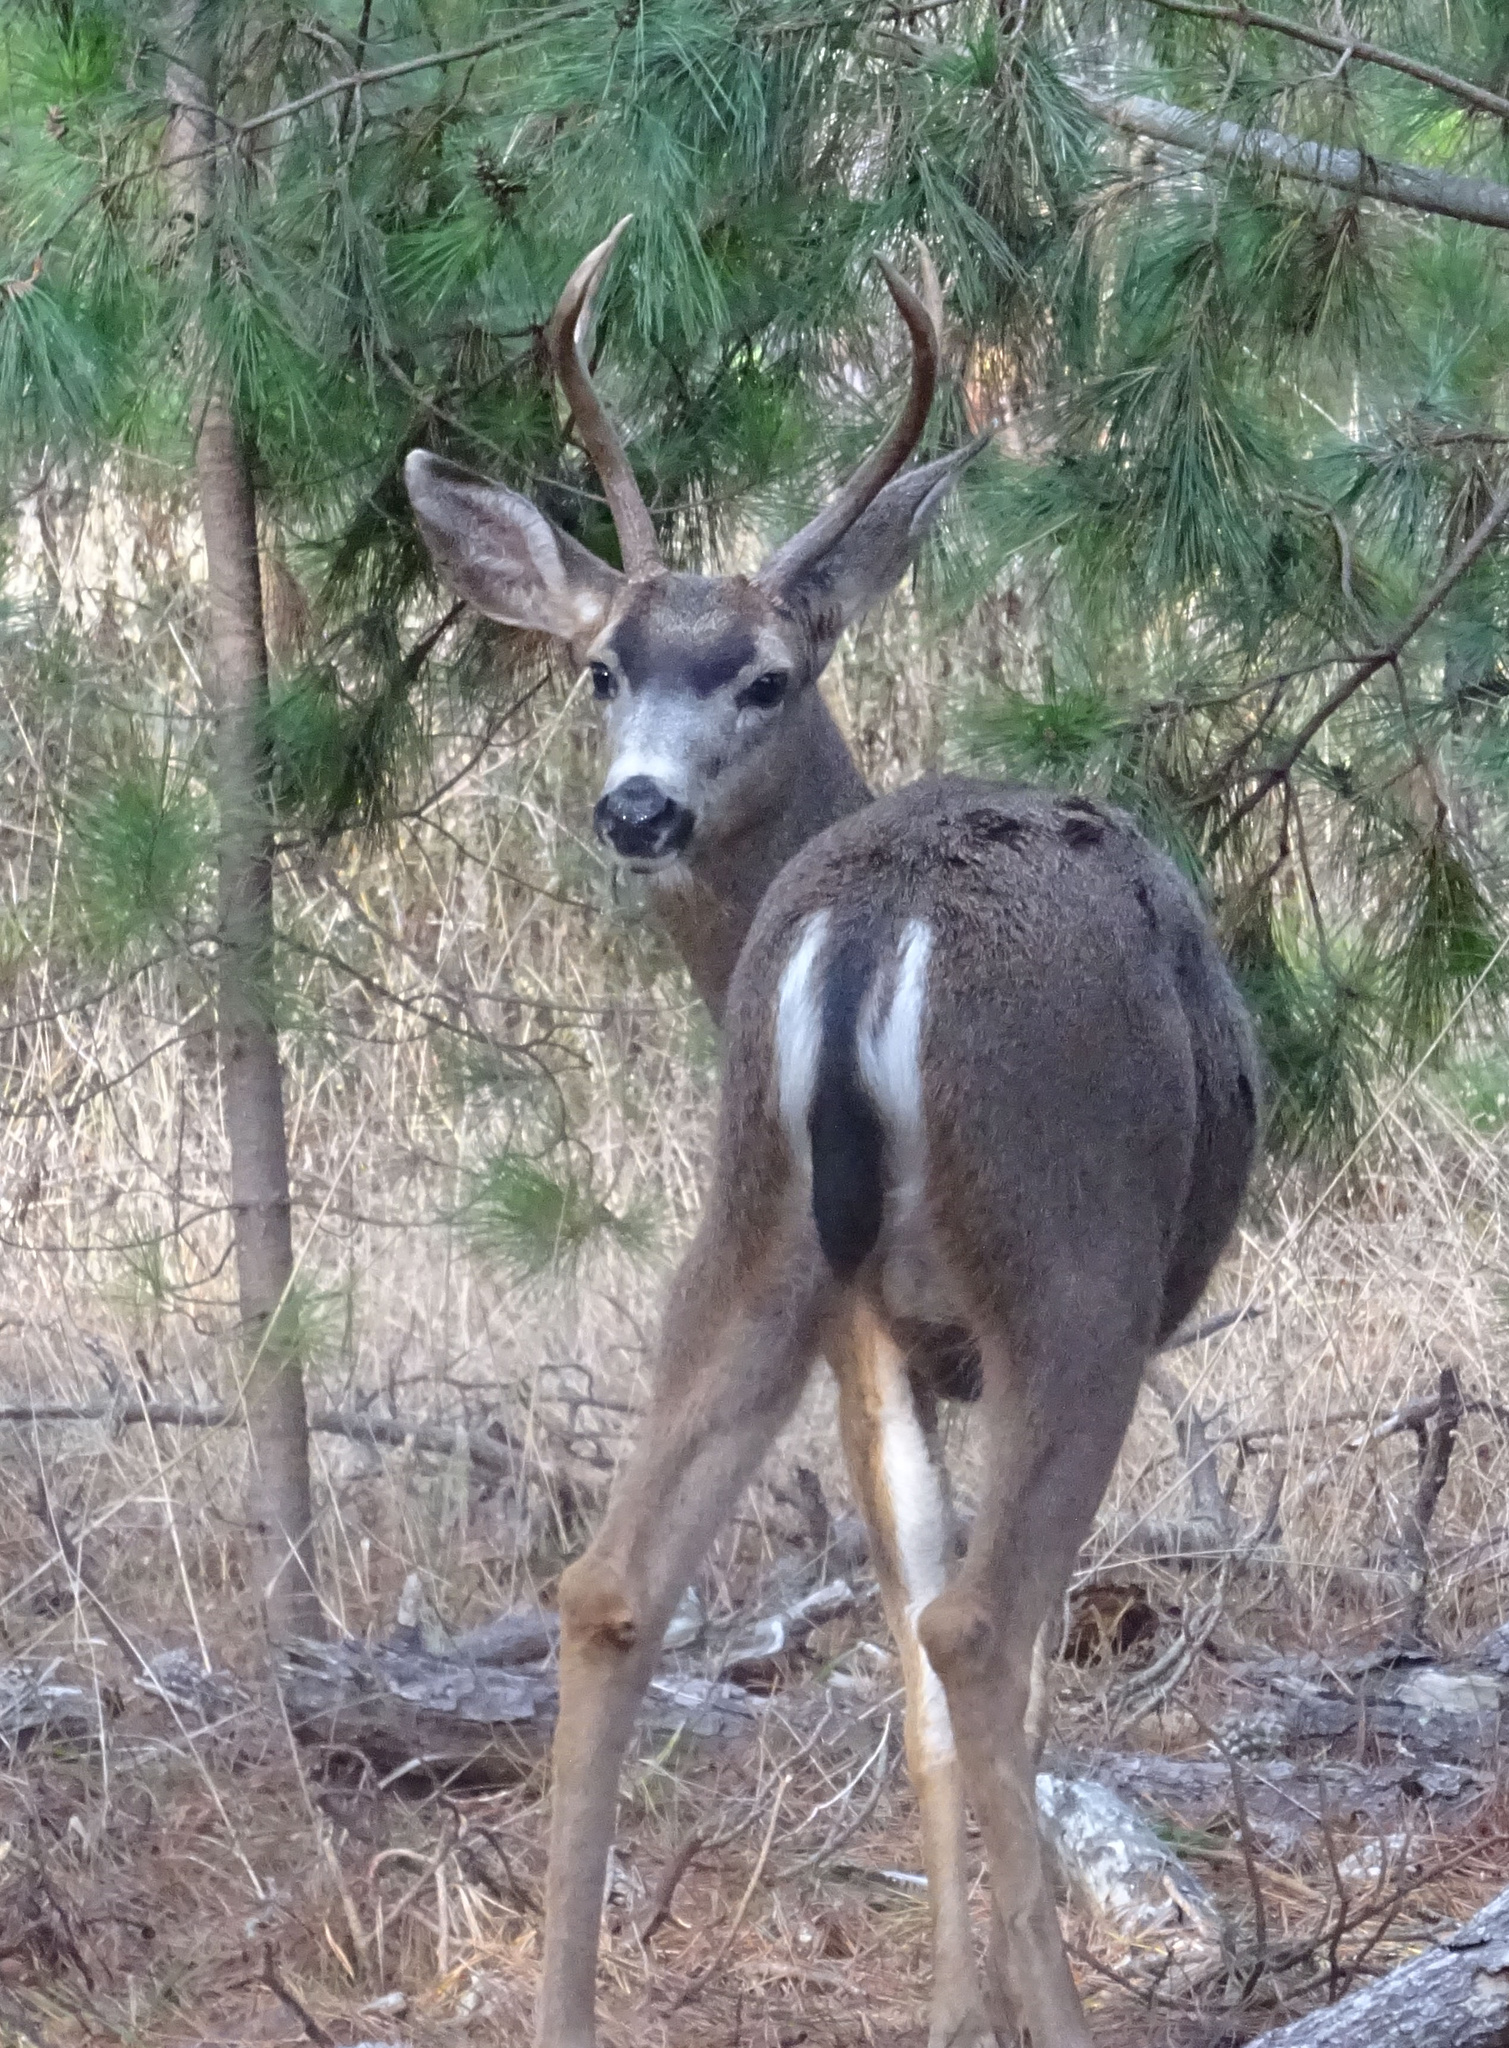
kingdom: Animalia
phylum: Chordata
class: Mammalia
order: Artiodactyla
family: Cervidae
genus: Odocoileus
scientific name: Odocoileus hemionus
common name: Mule deer
